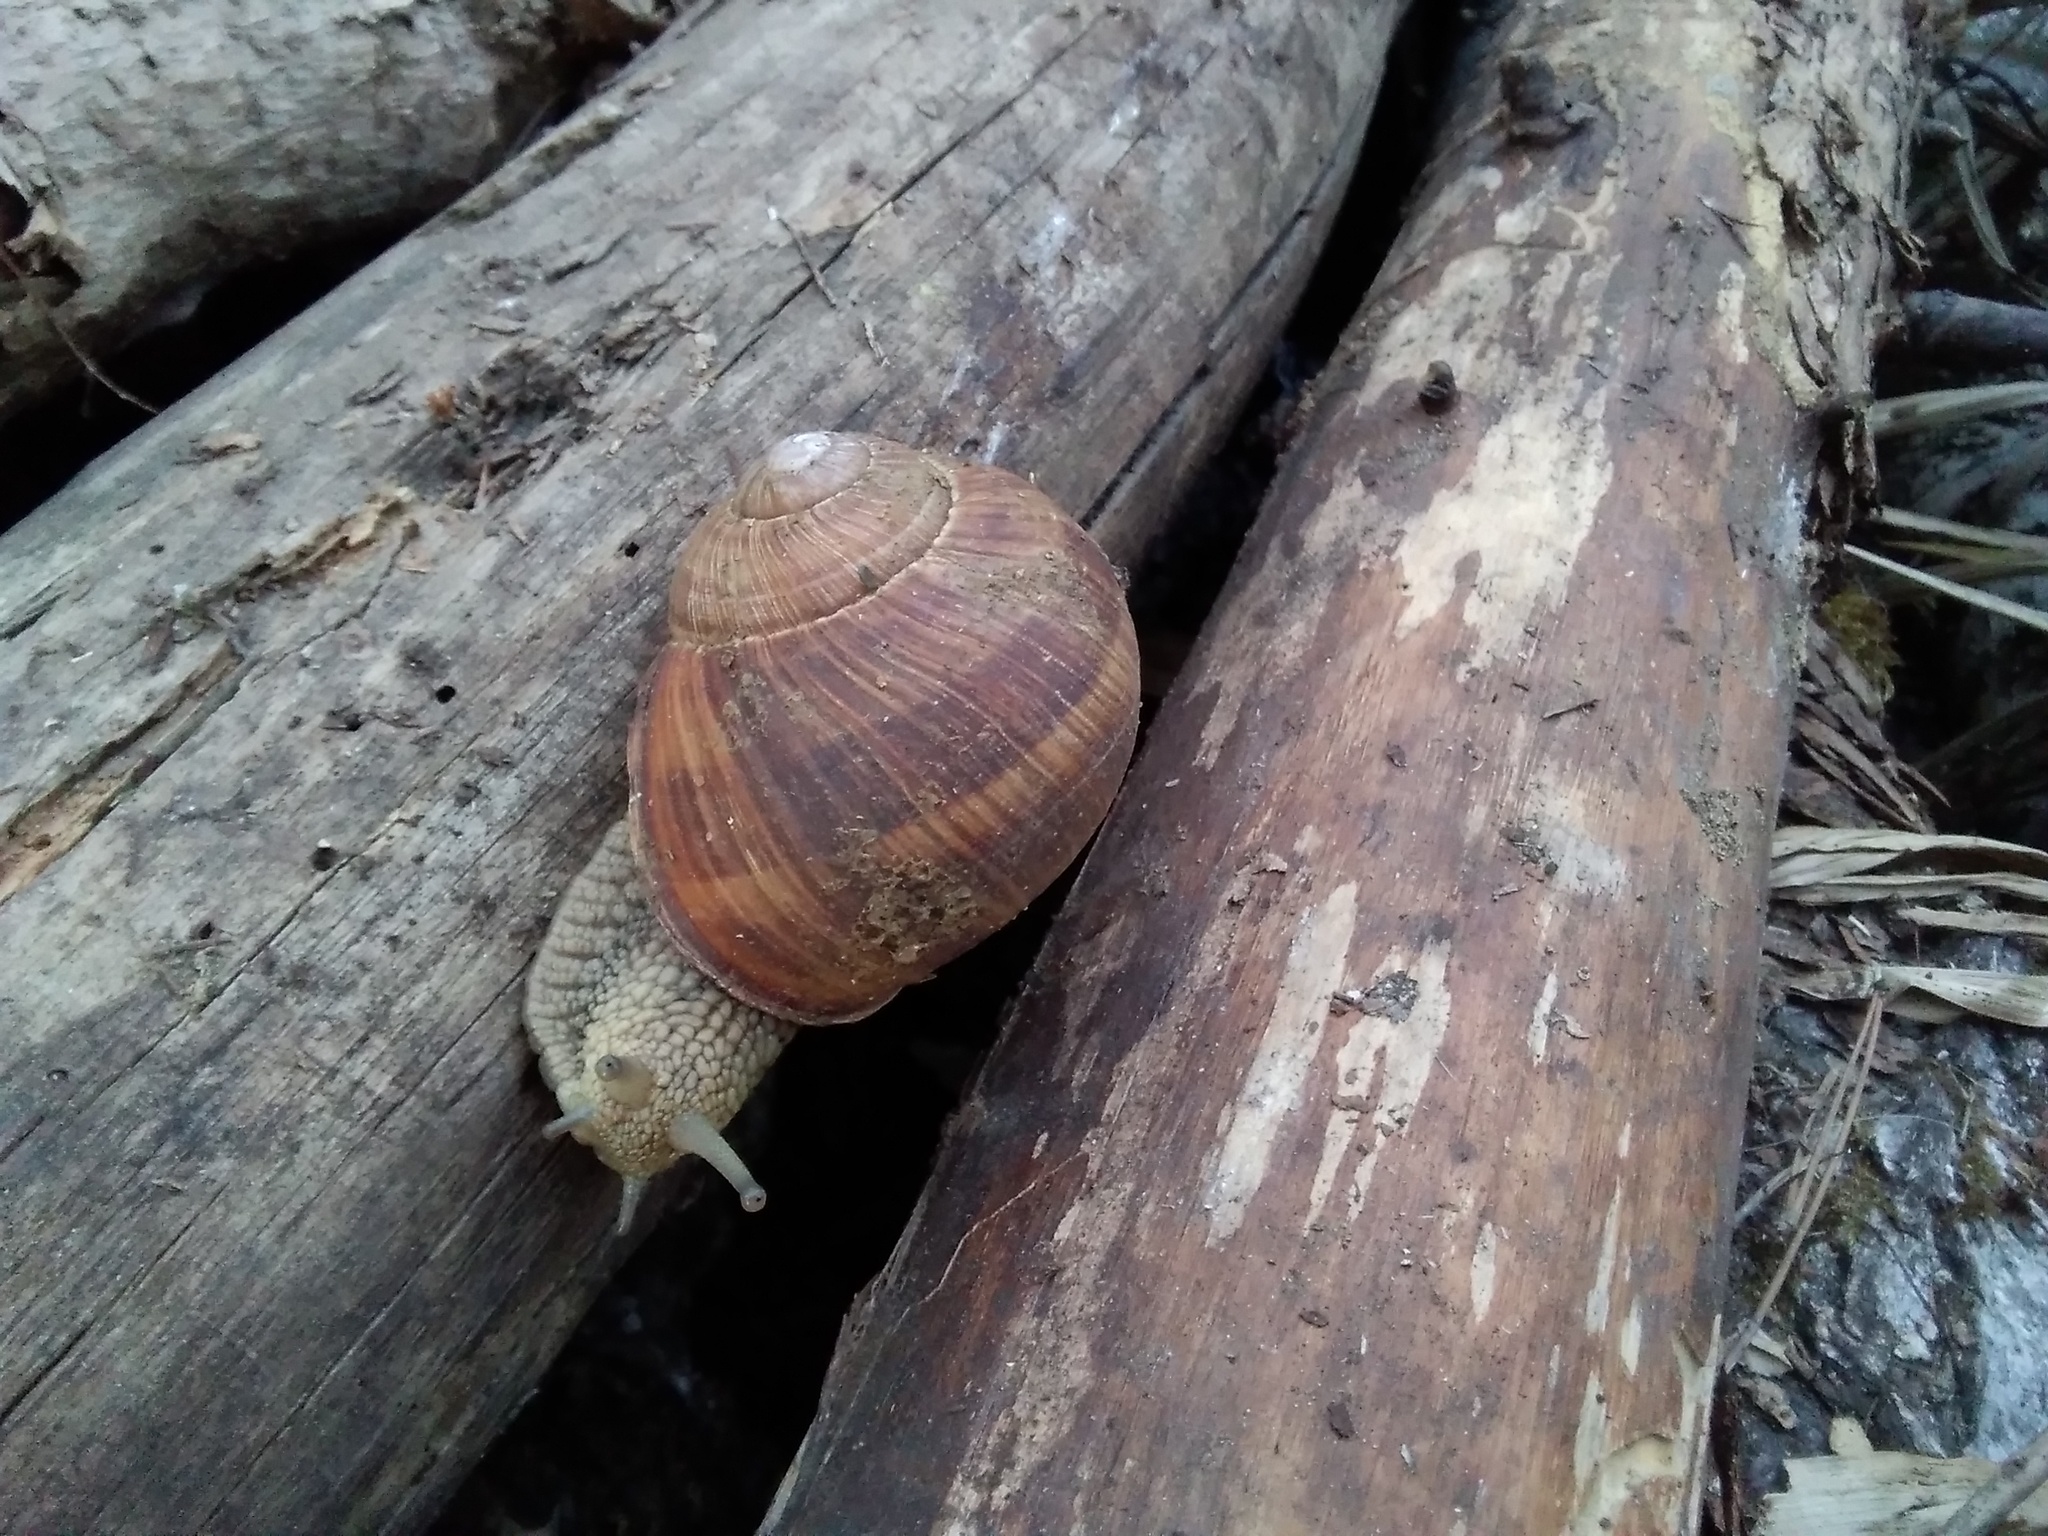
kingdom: Animalia
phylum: Mollusca
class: Gastropoda
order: Stylommatophora
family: Helicidae
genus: Helix
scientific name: Helix pomatia
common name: Roman snail
